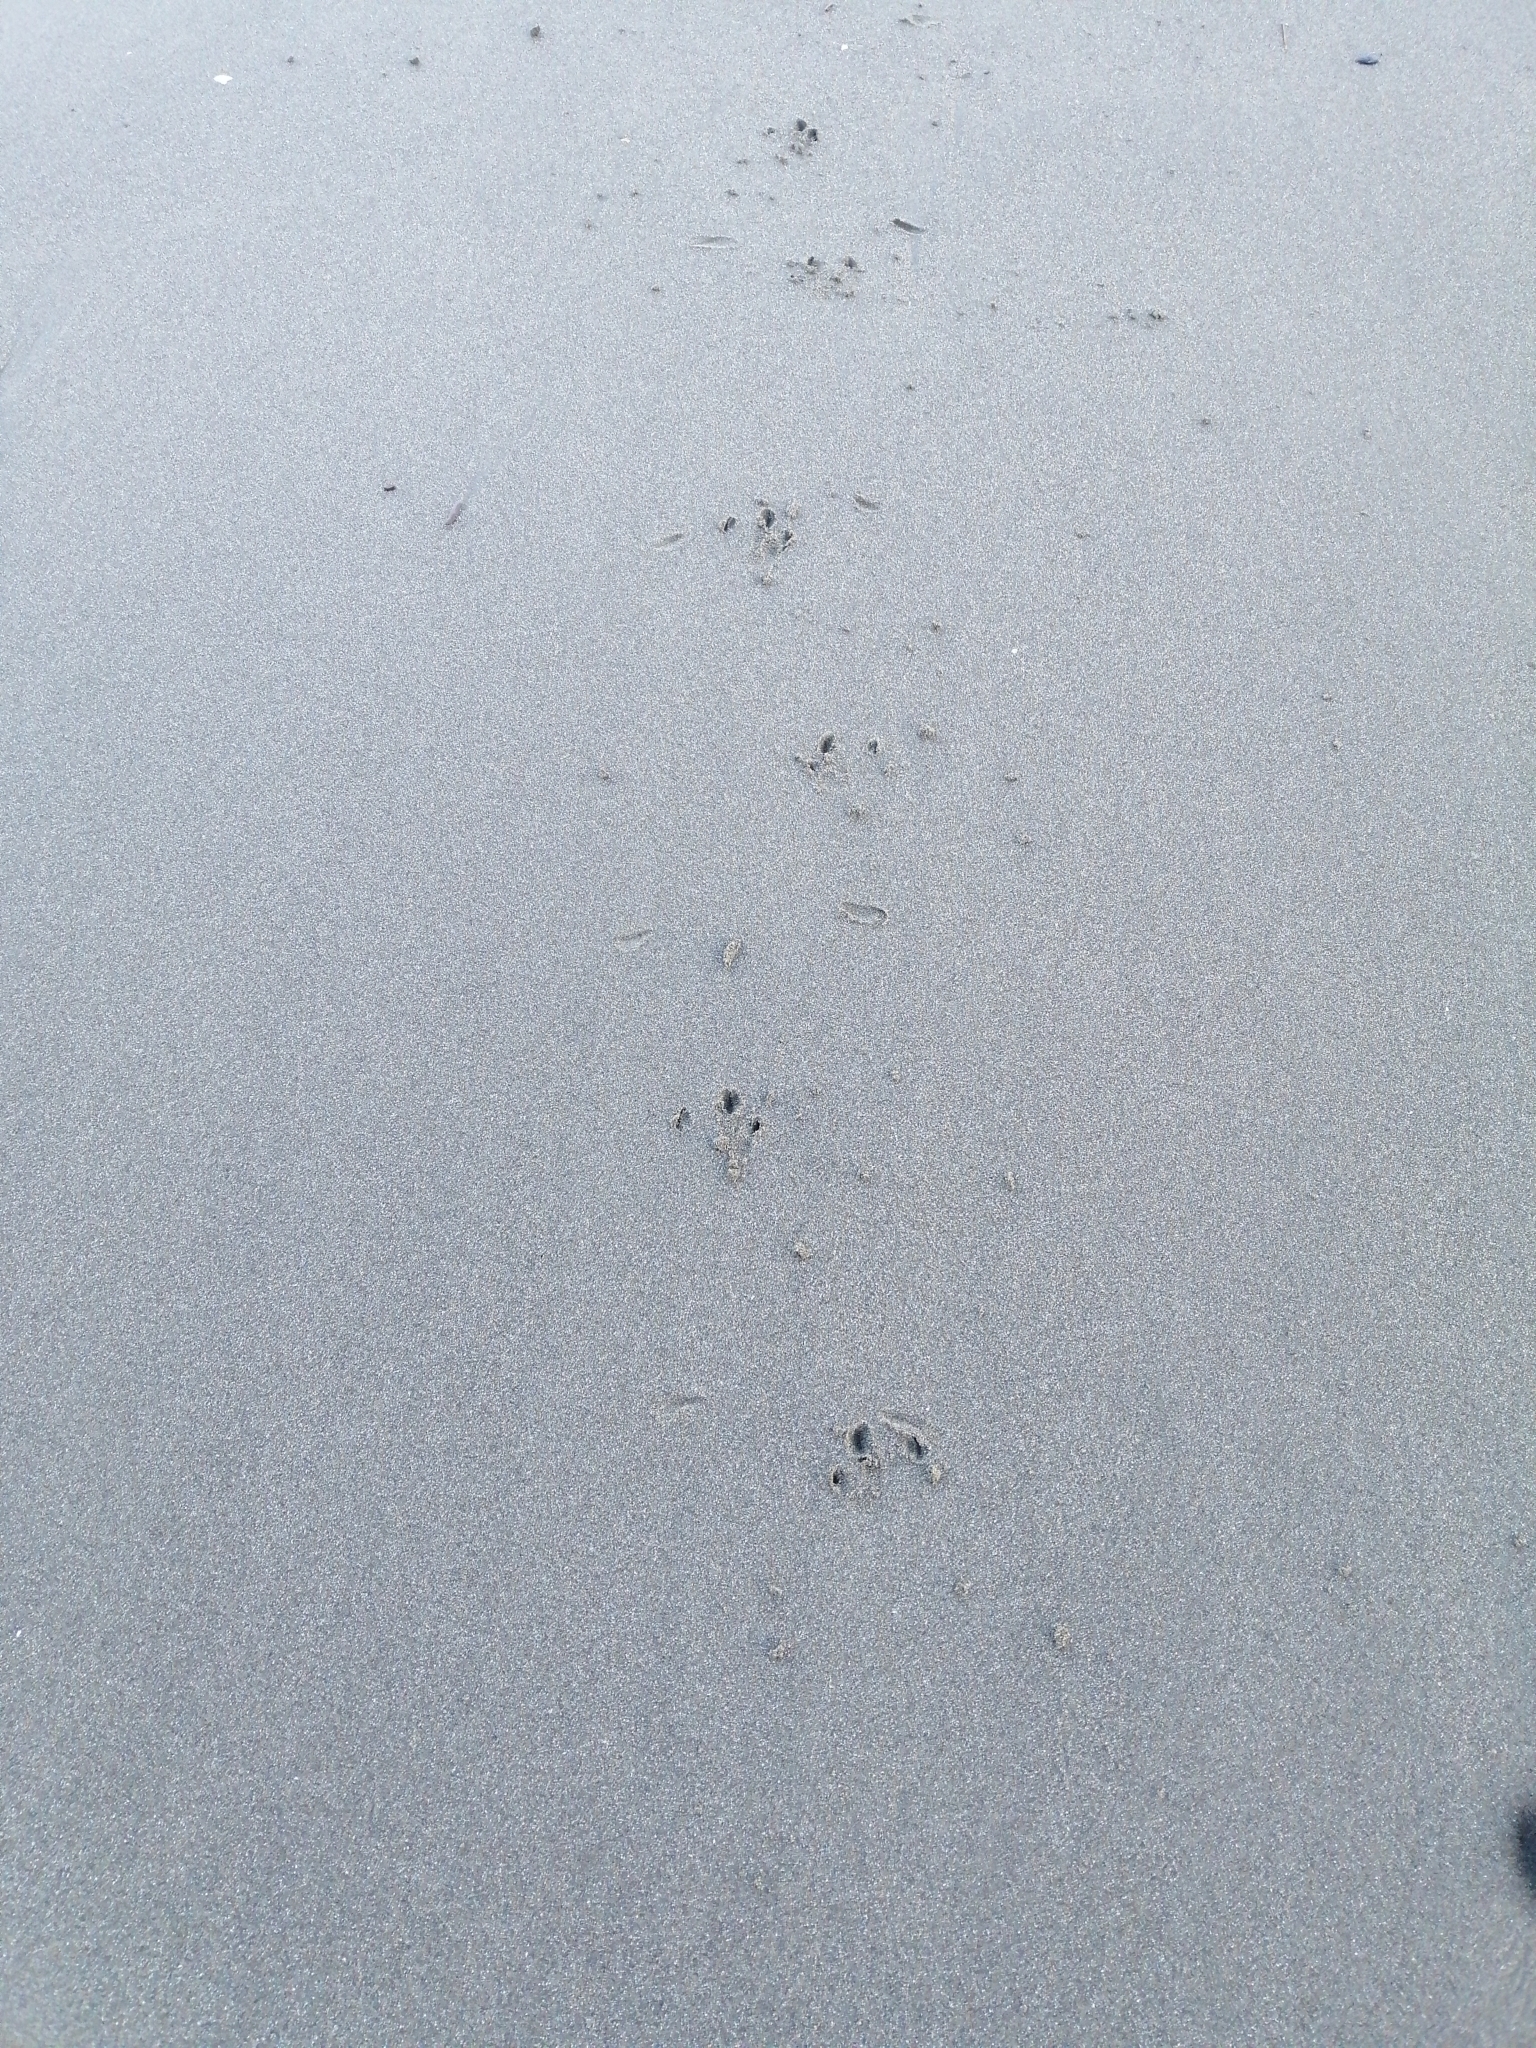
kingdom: Animalia
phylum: Chordata
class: Aves
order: Sphenisciformes
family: Spheniscidae
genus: Eudyptula
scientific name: Eudyptula minor
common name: Little penguin
